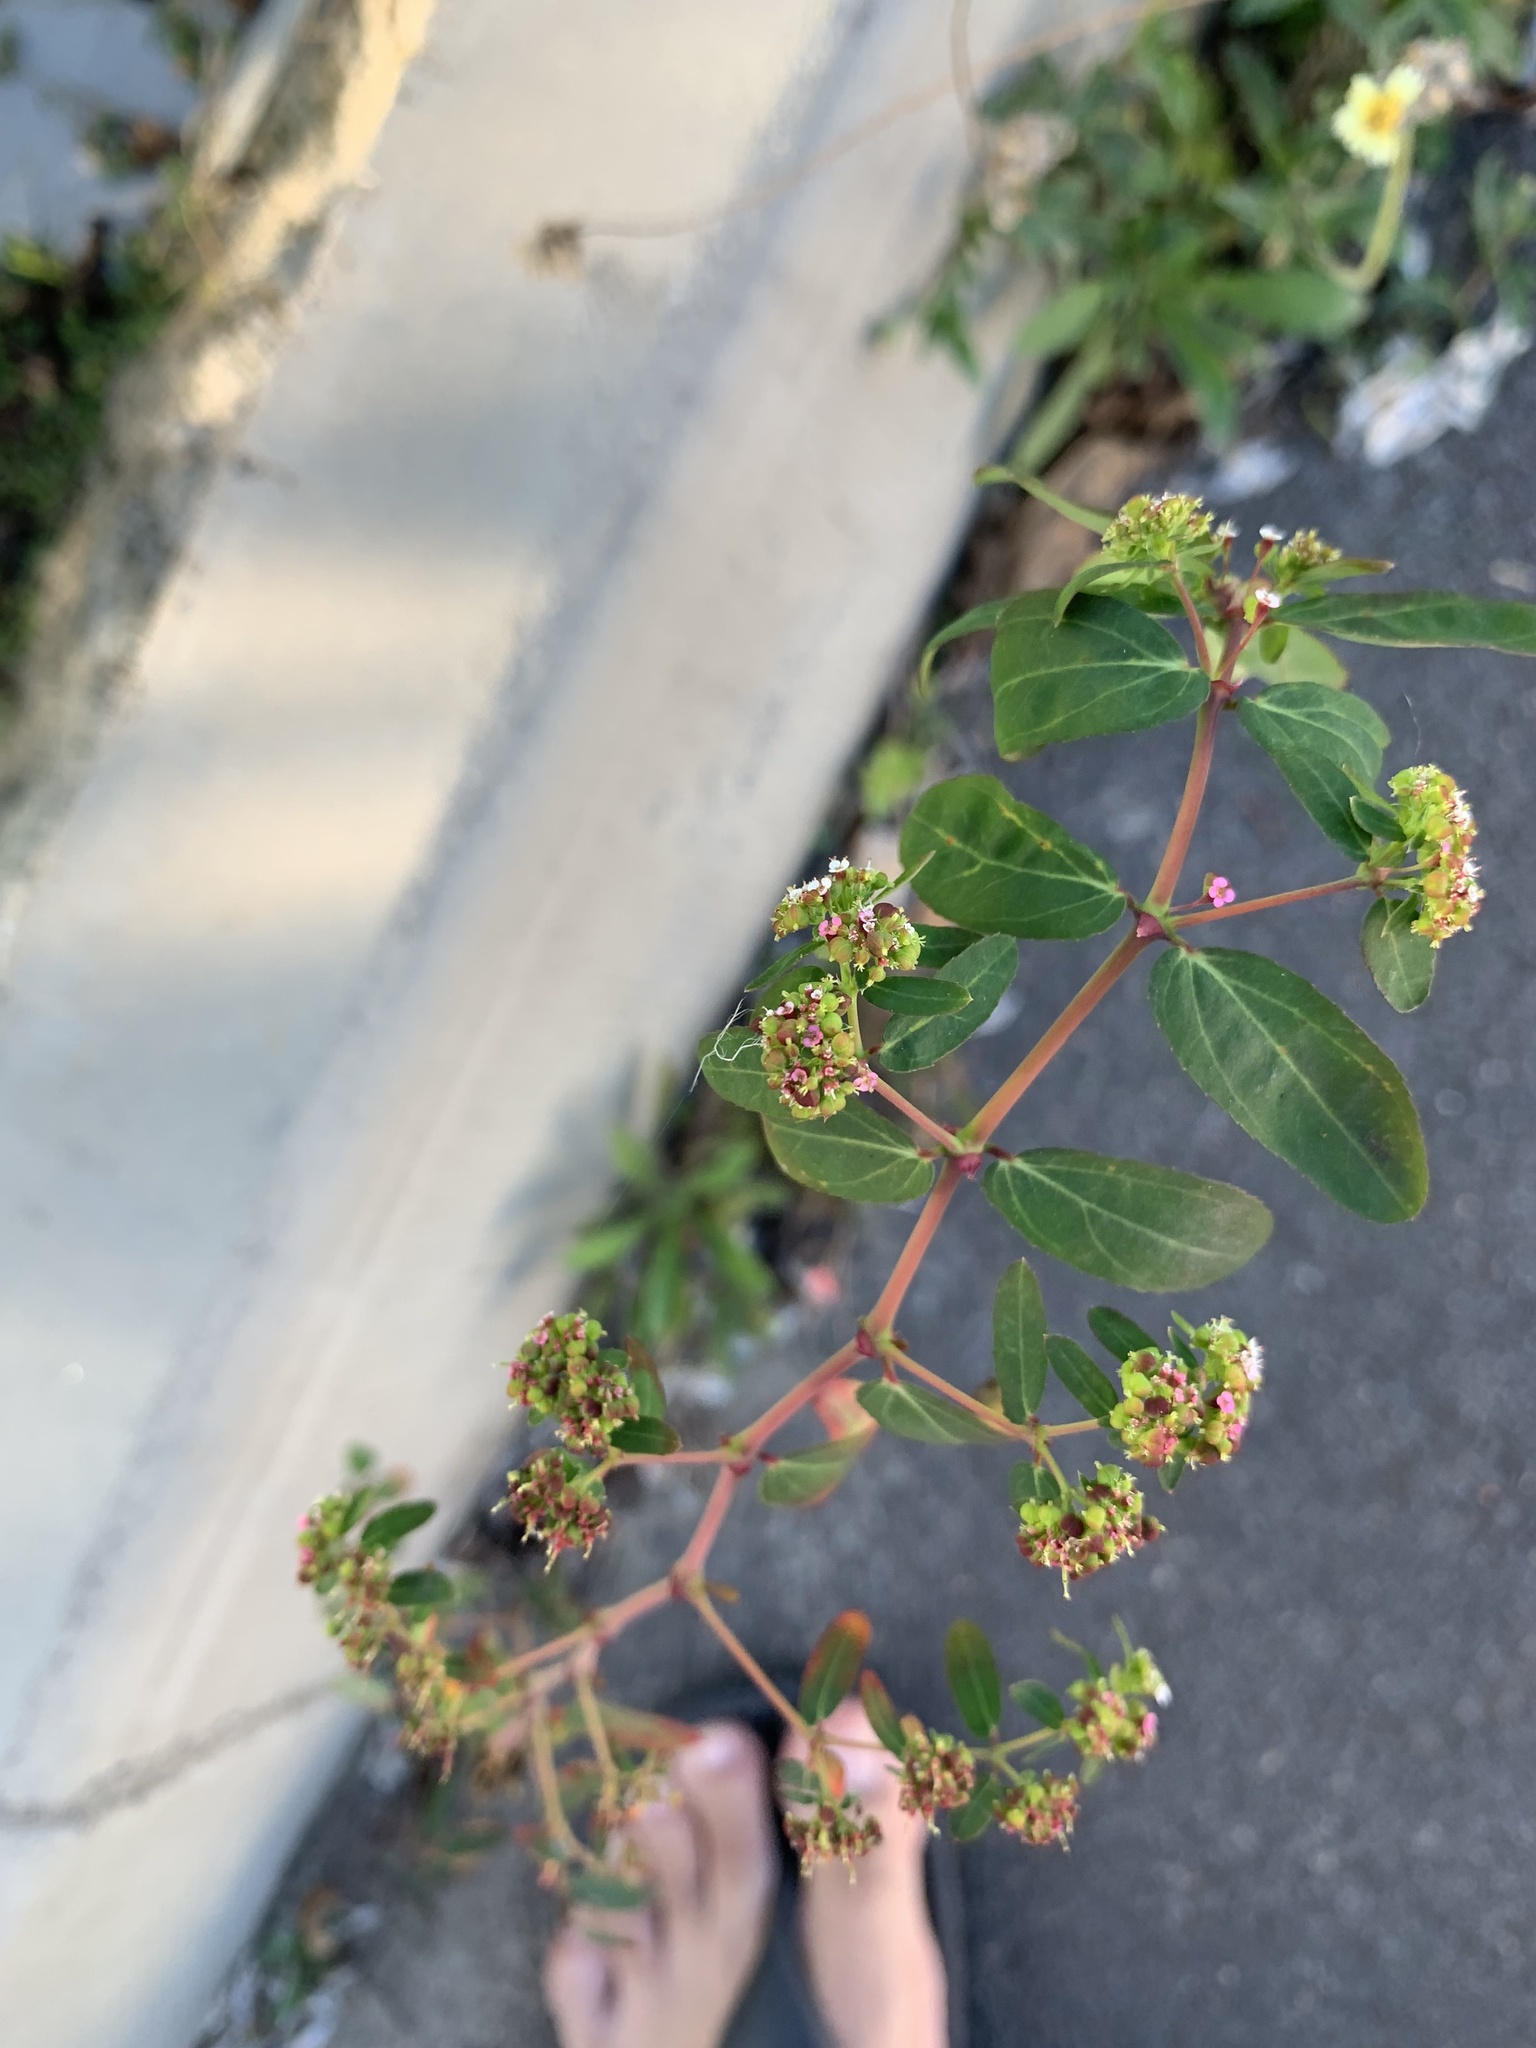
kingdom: Plantae
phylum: Tracheophyta
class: Magnoliopsida
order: Malpighiales
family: Euphorbiaceae
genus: Euphorbia
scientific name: Euphorbia hypericifolia
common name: Graceful sandmat
